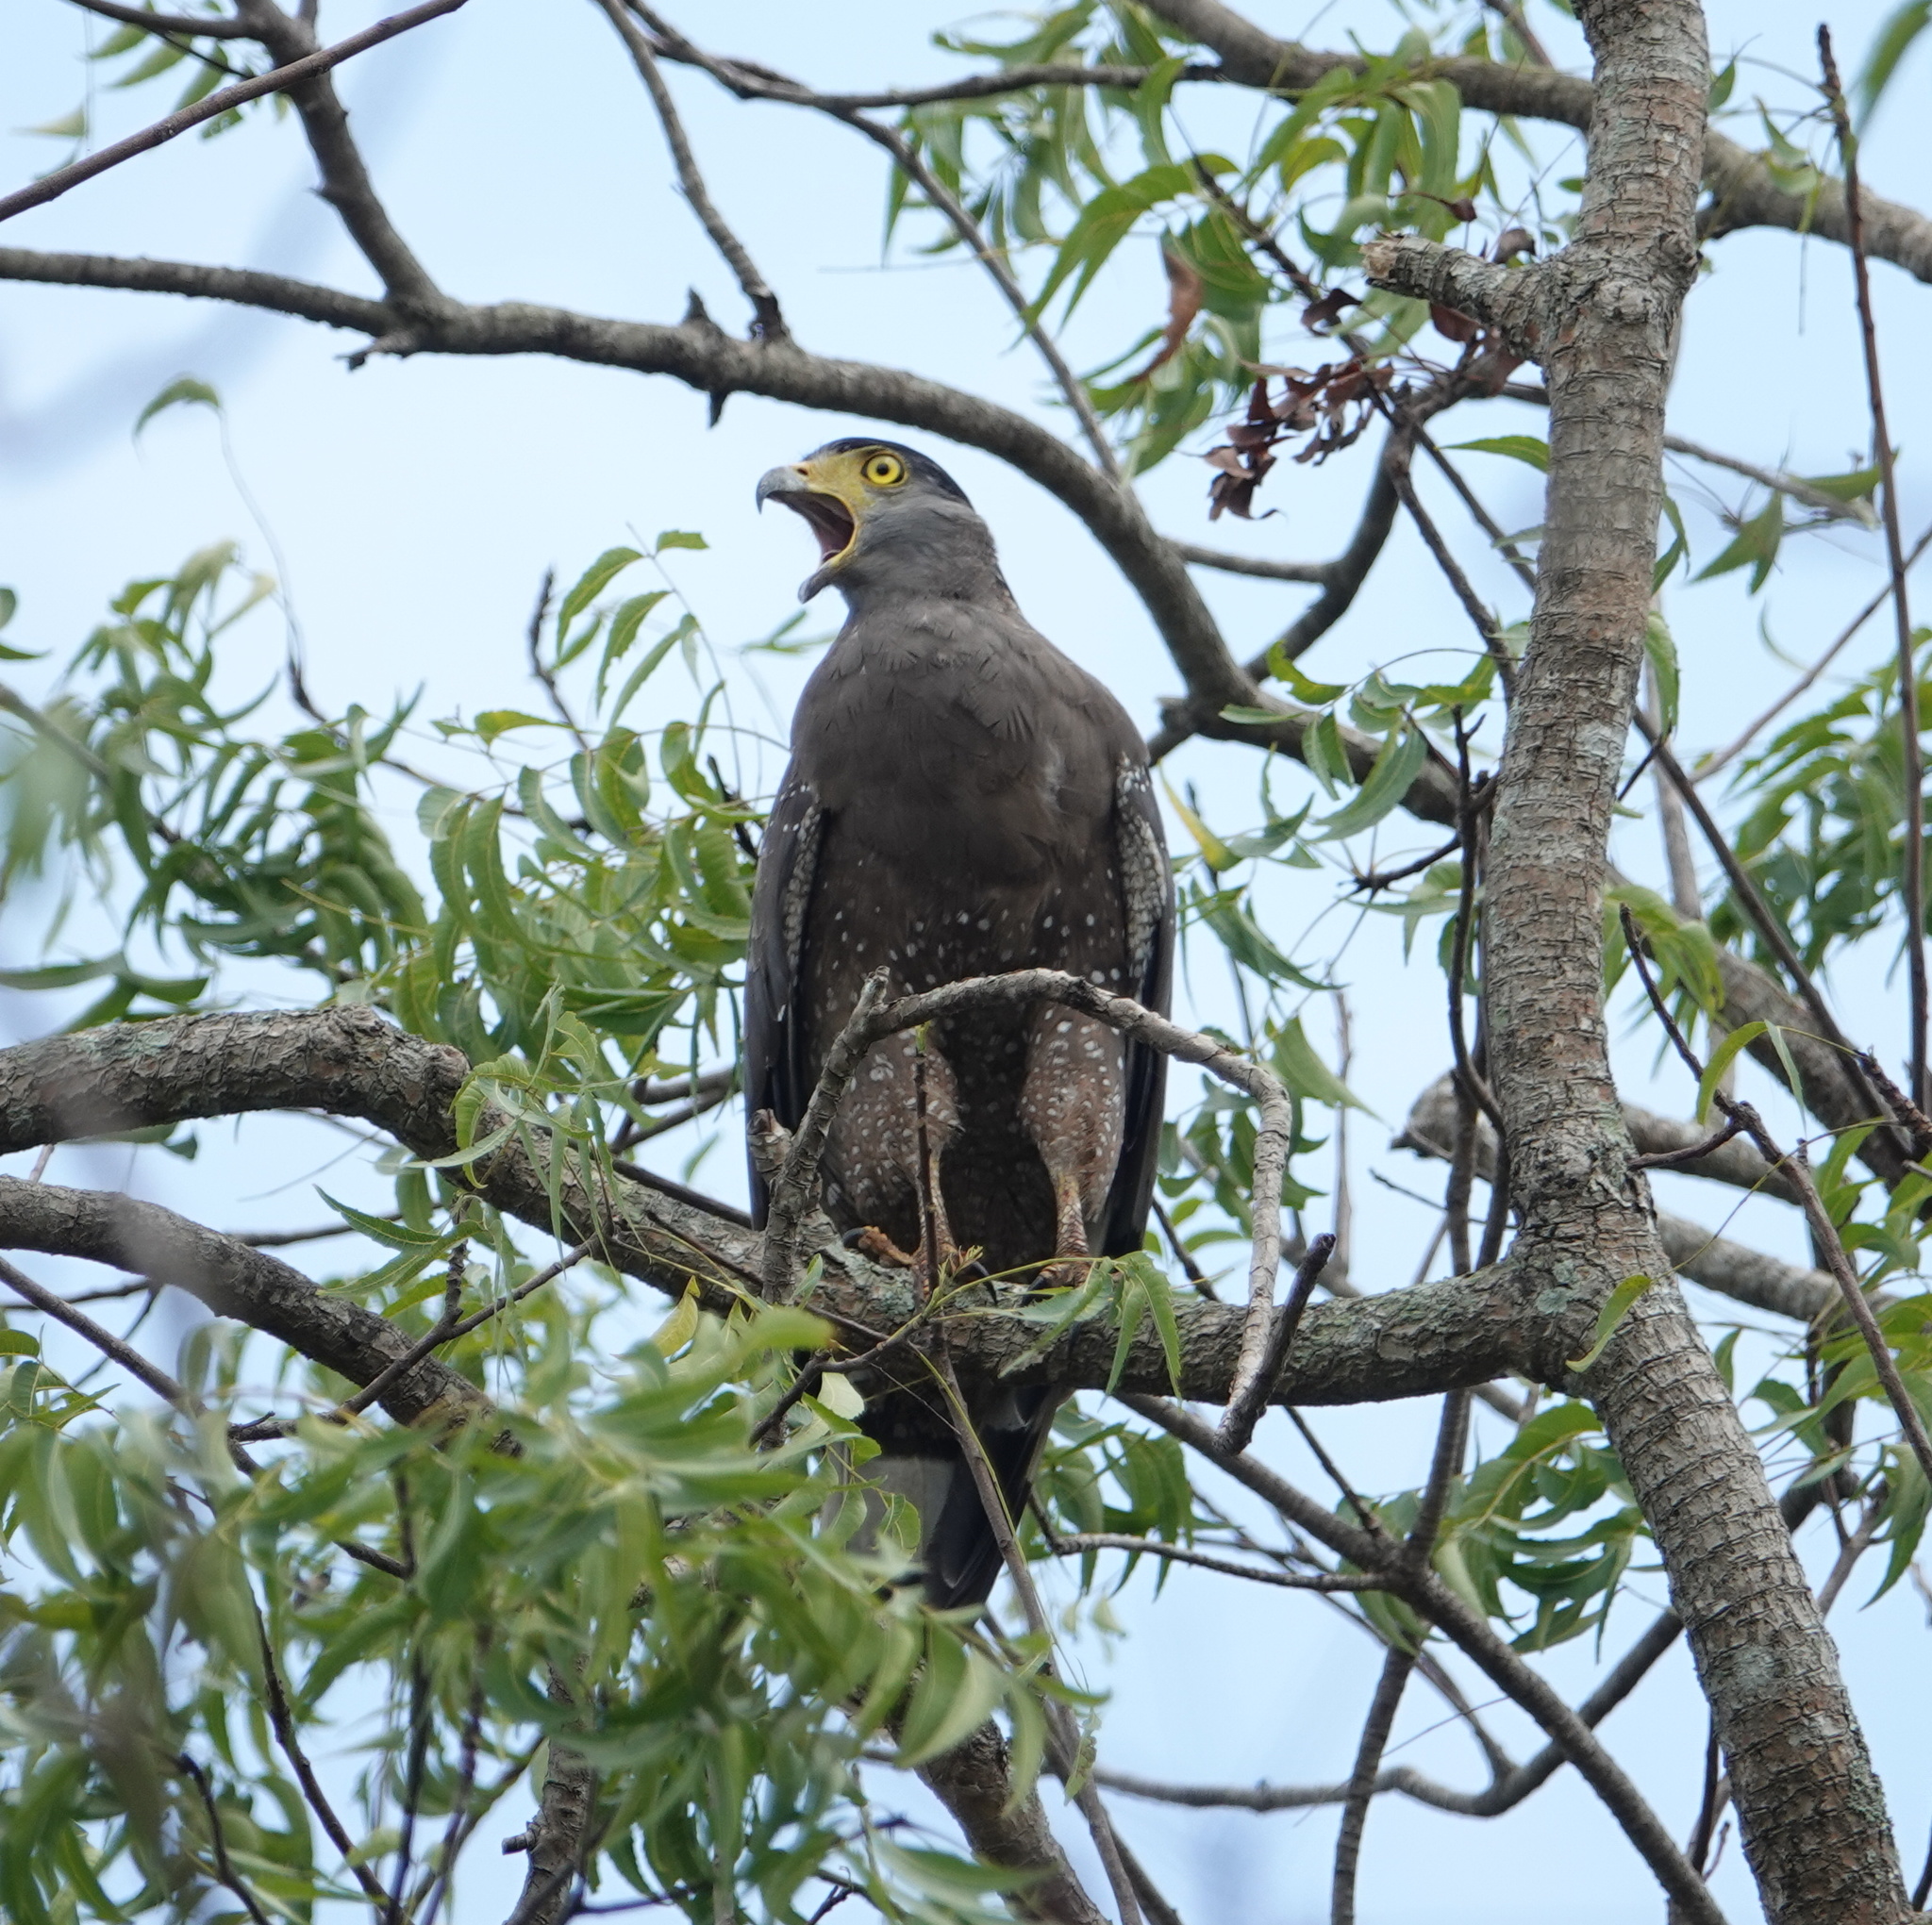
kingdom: Animalia
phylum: Chordata
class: Aves
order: Accipitriformes
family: Accipitridae
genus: Spilornis
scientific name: Spilornis cheela
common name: Crested serpent eagle
